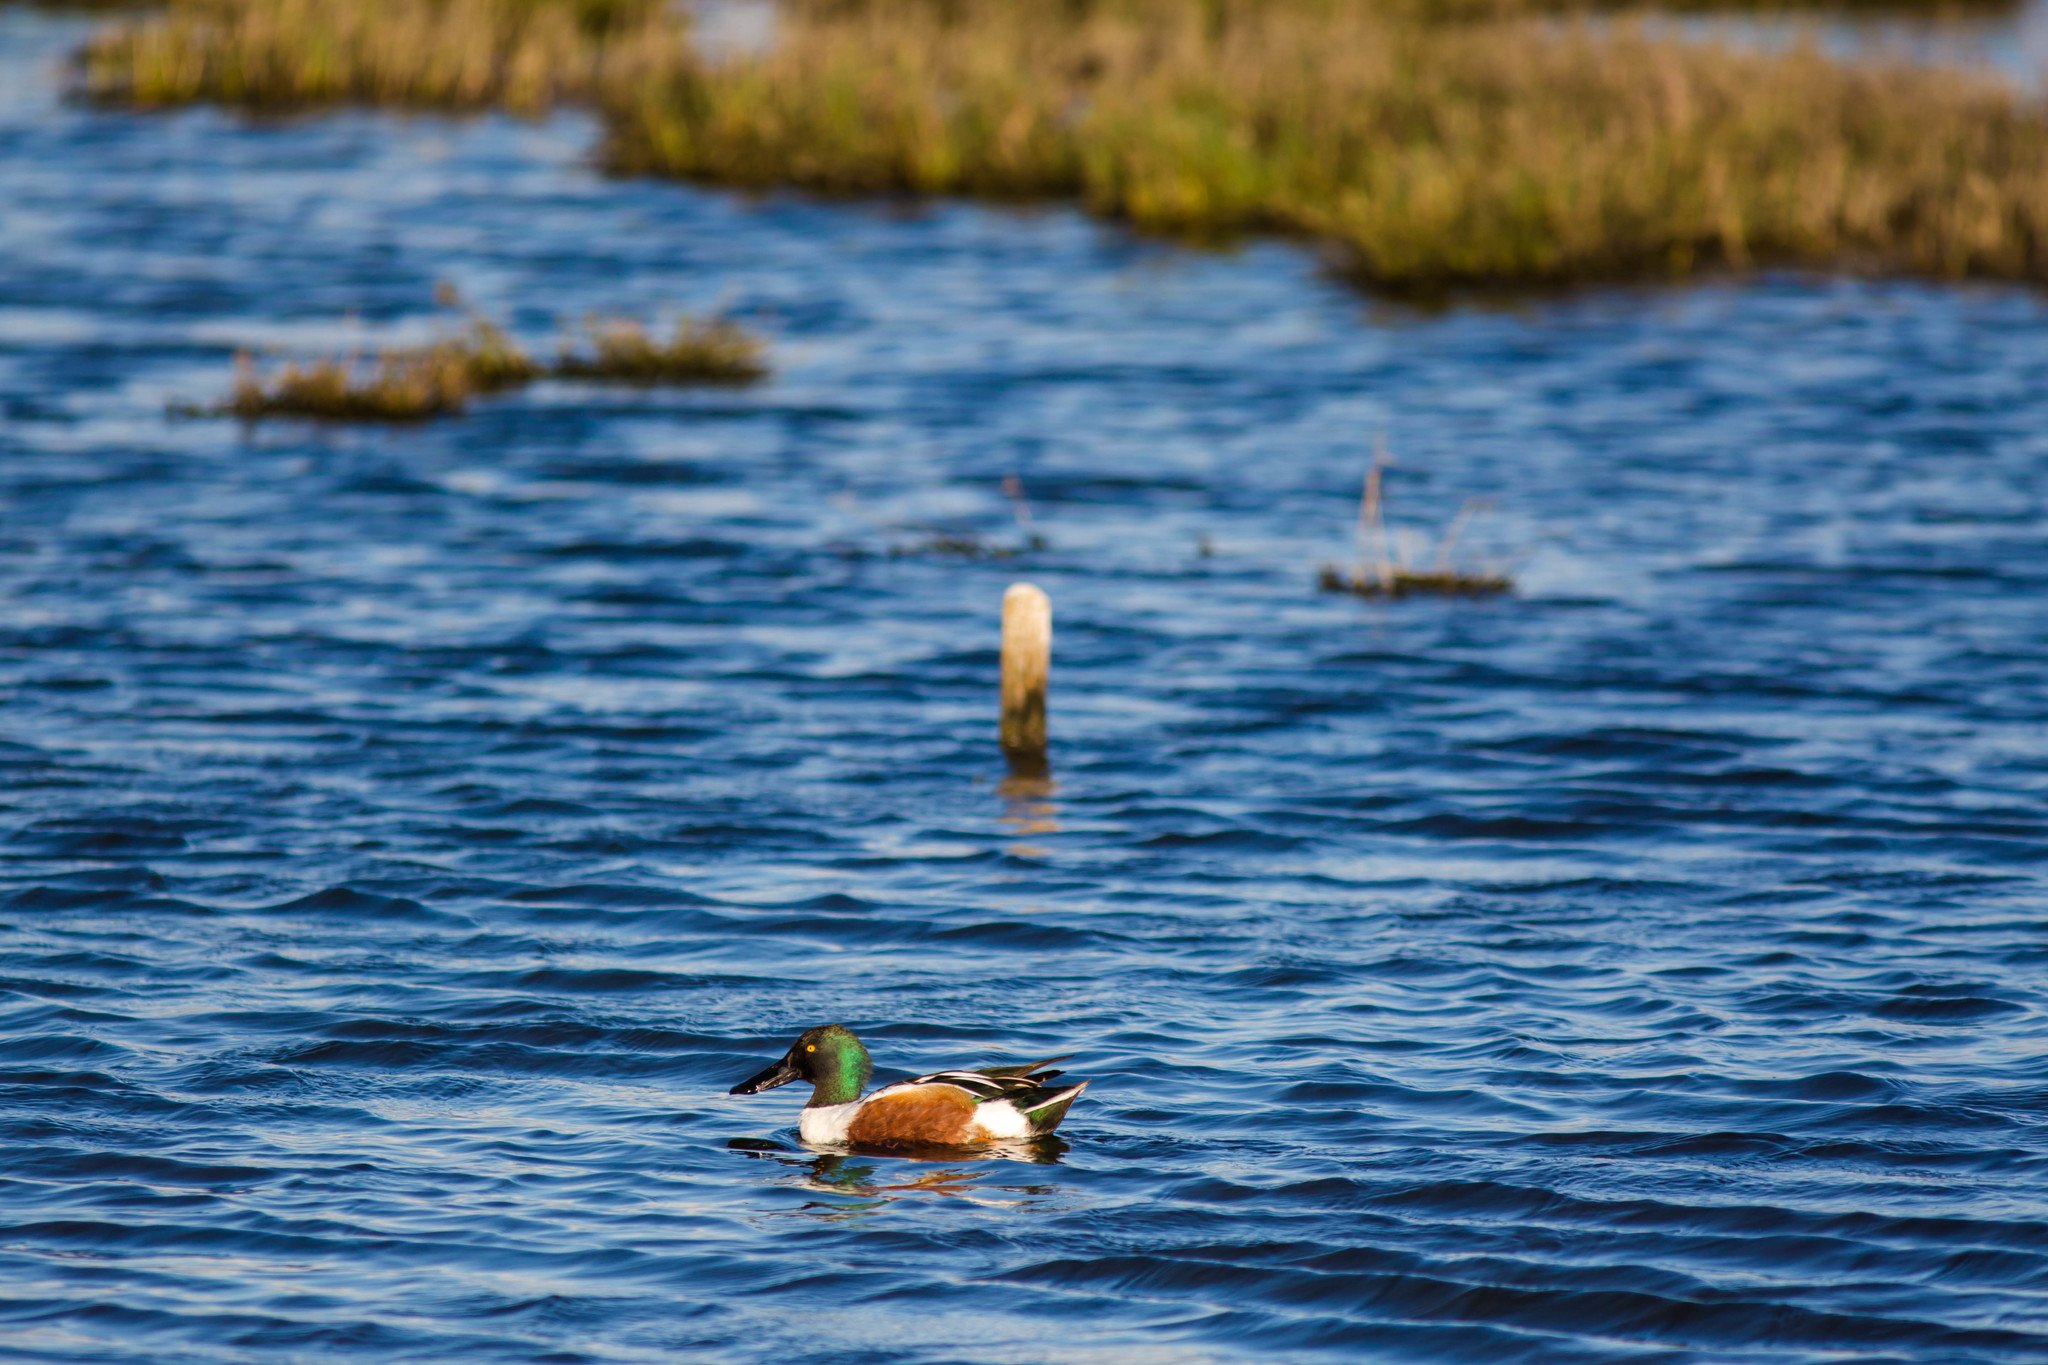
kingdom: Animalia
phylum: Chordata
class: Aves
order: Anseriformes
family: Anatidae
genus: Spatula
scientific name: Spatula clypeata
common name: Northern shoveler
